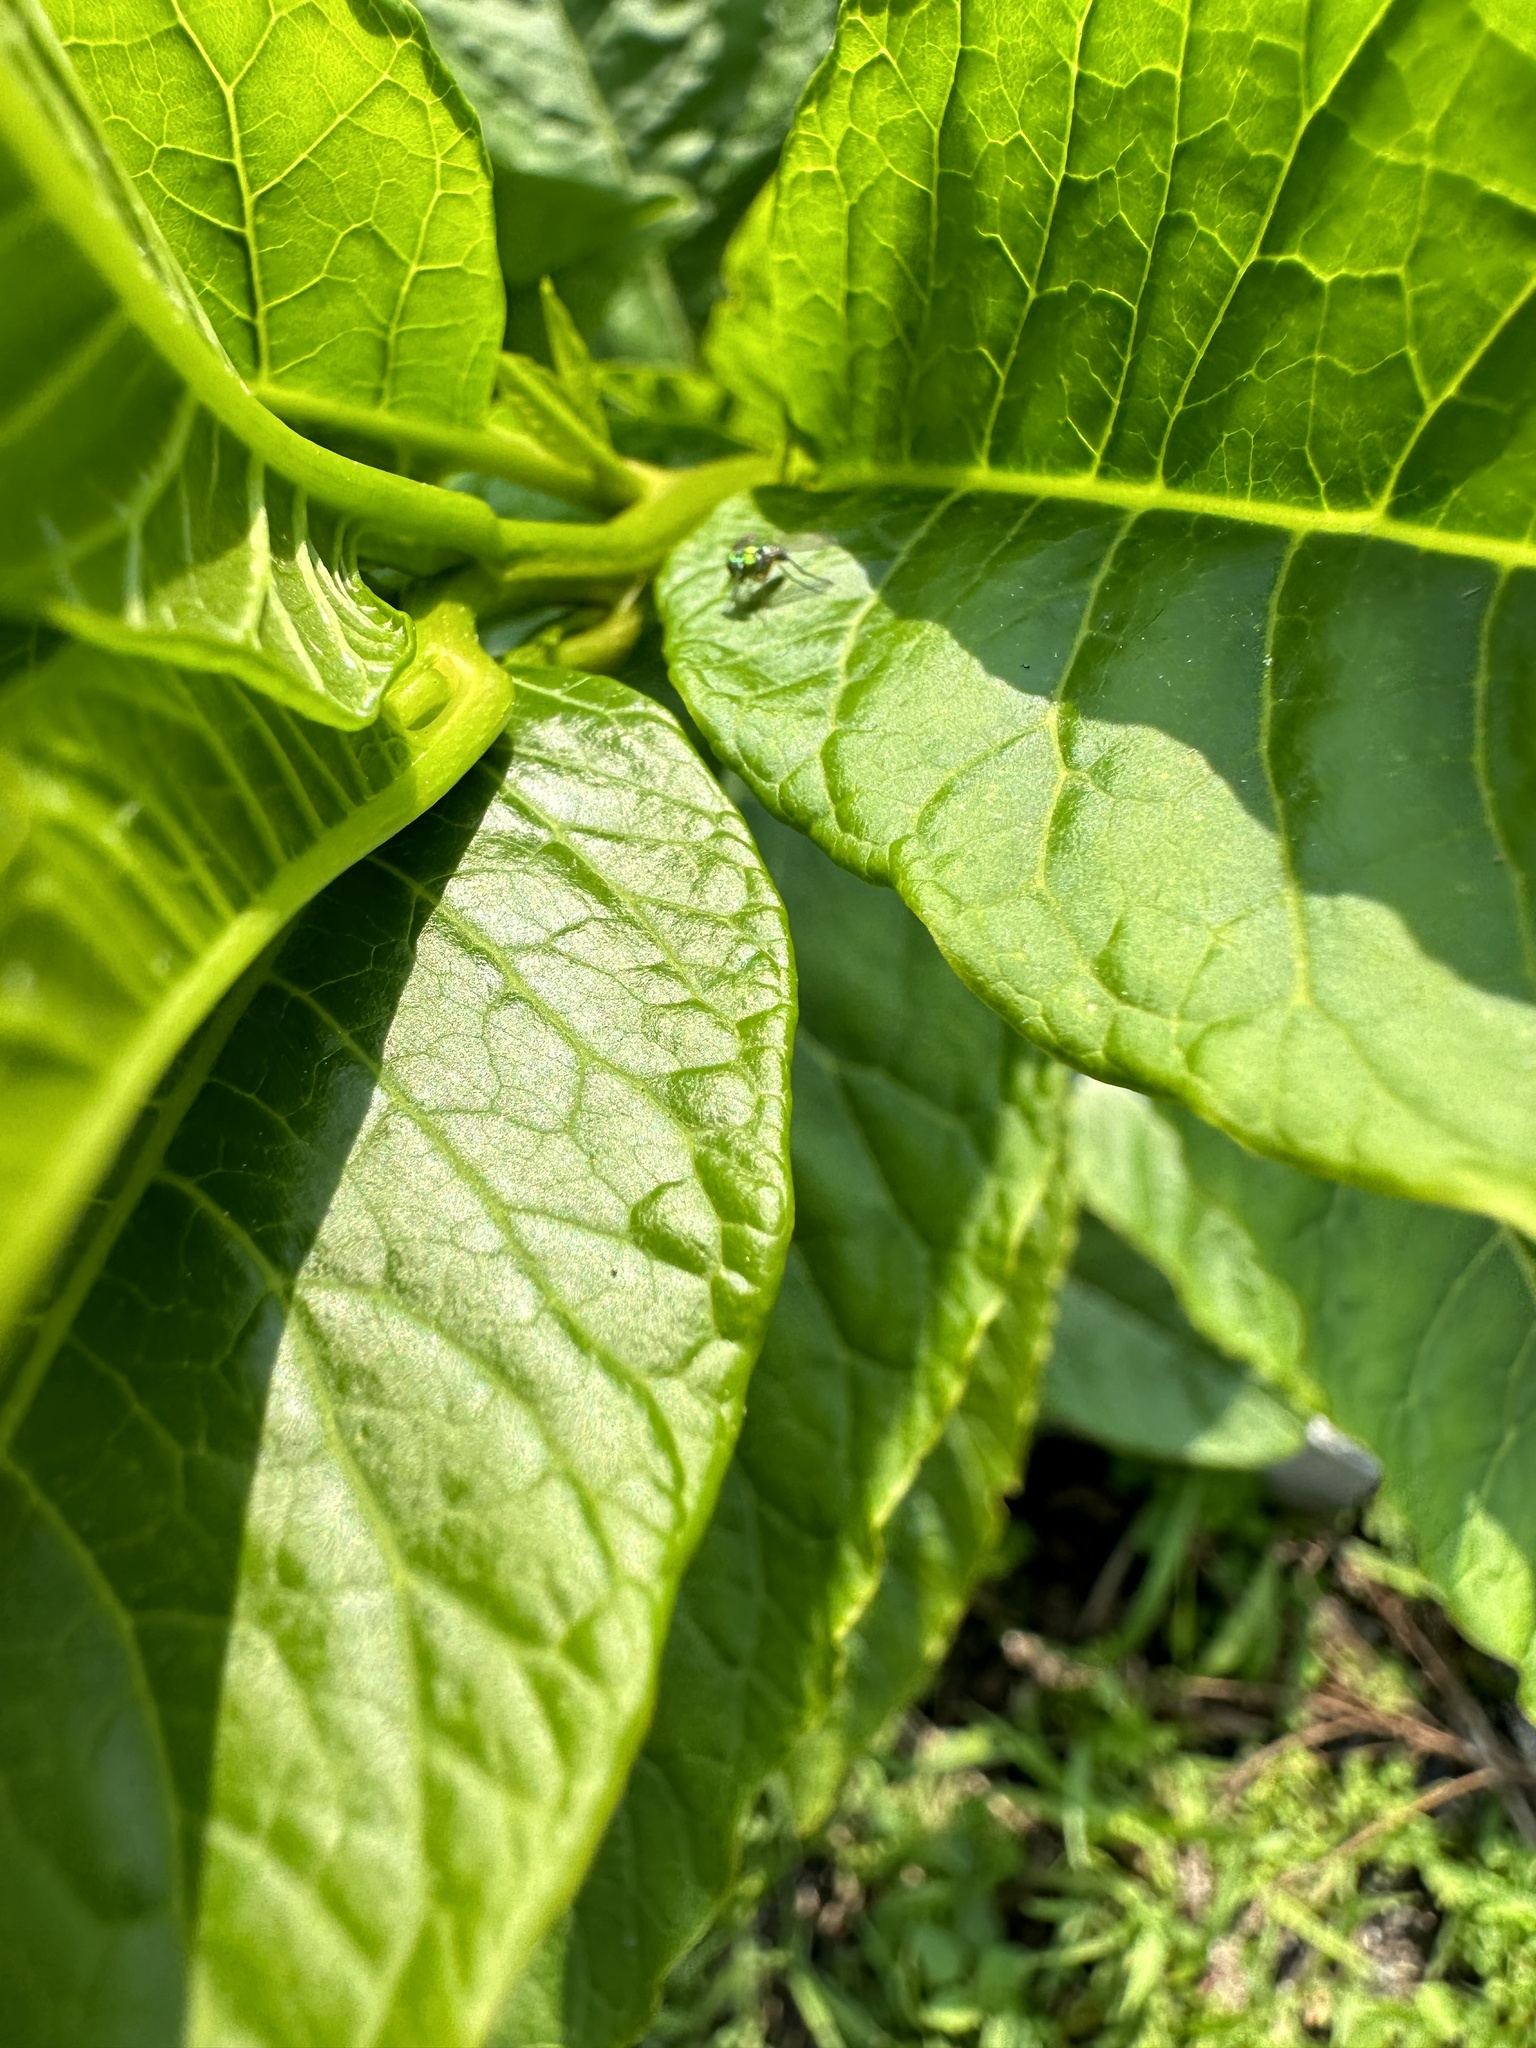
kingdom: Plantae
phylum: Tracheophyta
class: Magnoliopsida
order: Caryophyllales
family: Phytolaccaceae
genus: Phytolacca
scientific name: Phytolacca americana
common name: American pokeweed
